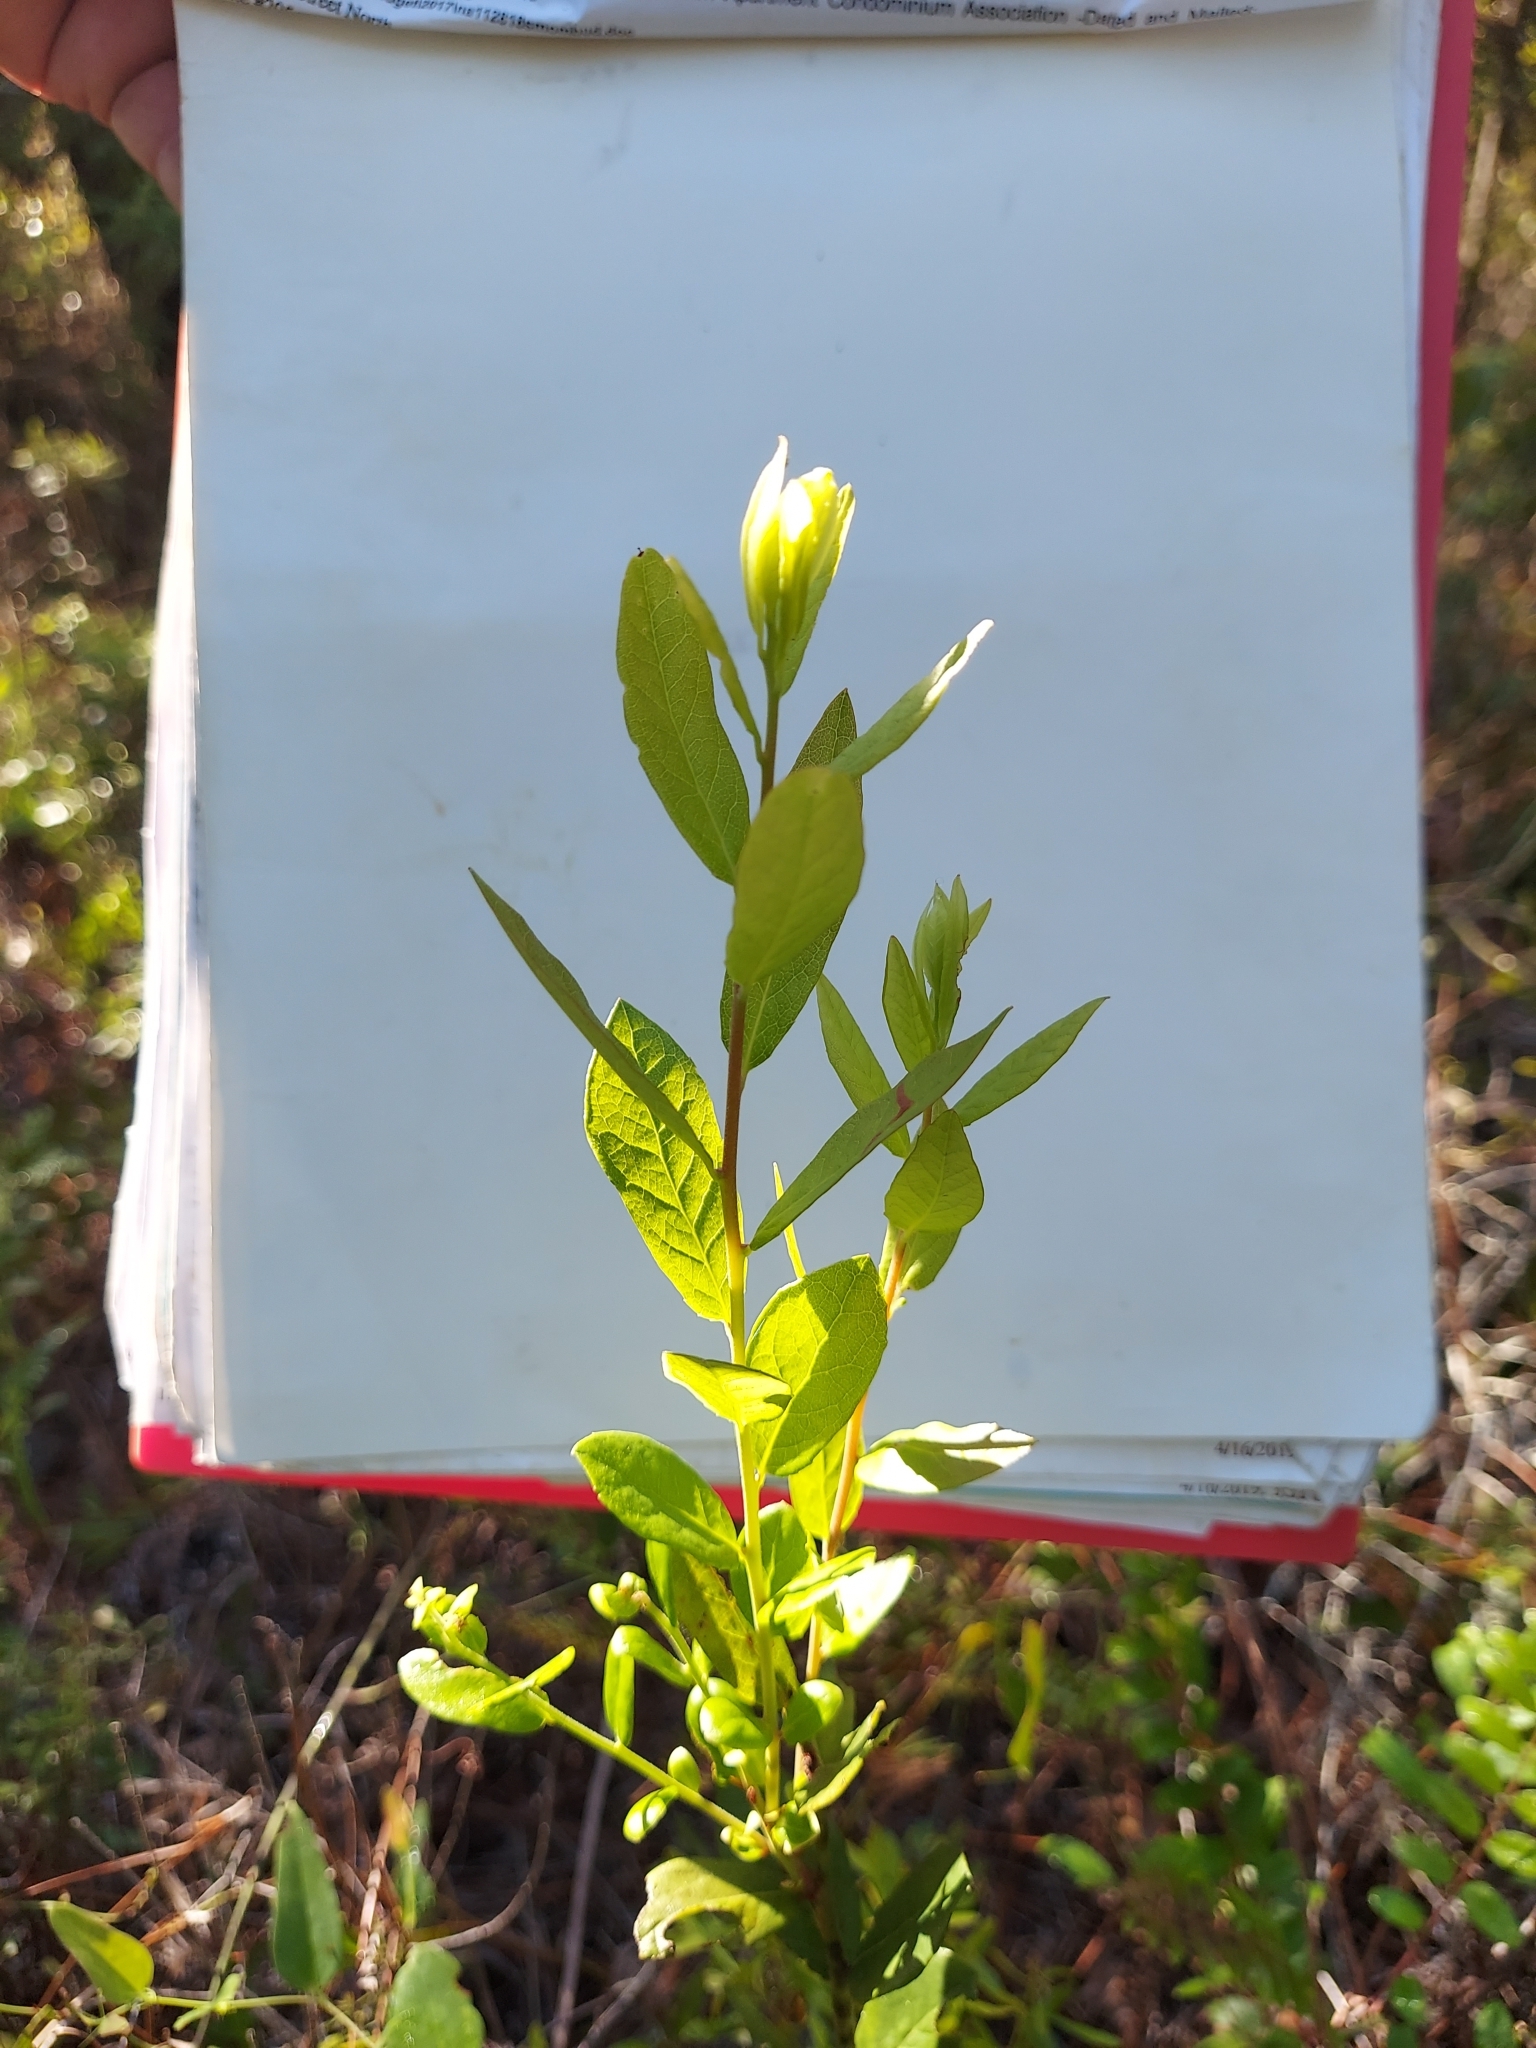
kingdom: Plantae
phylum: Tracheophyta
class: Magnoliopsida
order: Ericales
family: Ericaceae
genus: Vaccinium
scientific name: Vaccinium stamineum
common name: Deerberry
